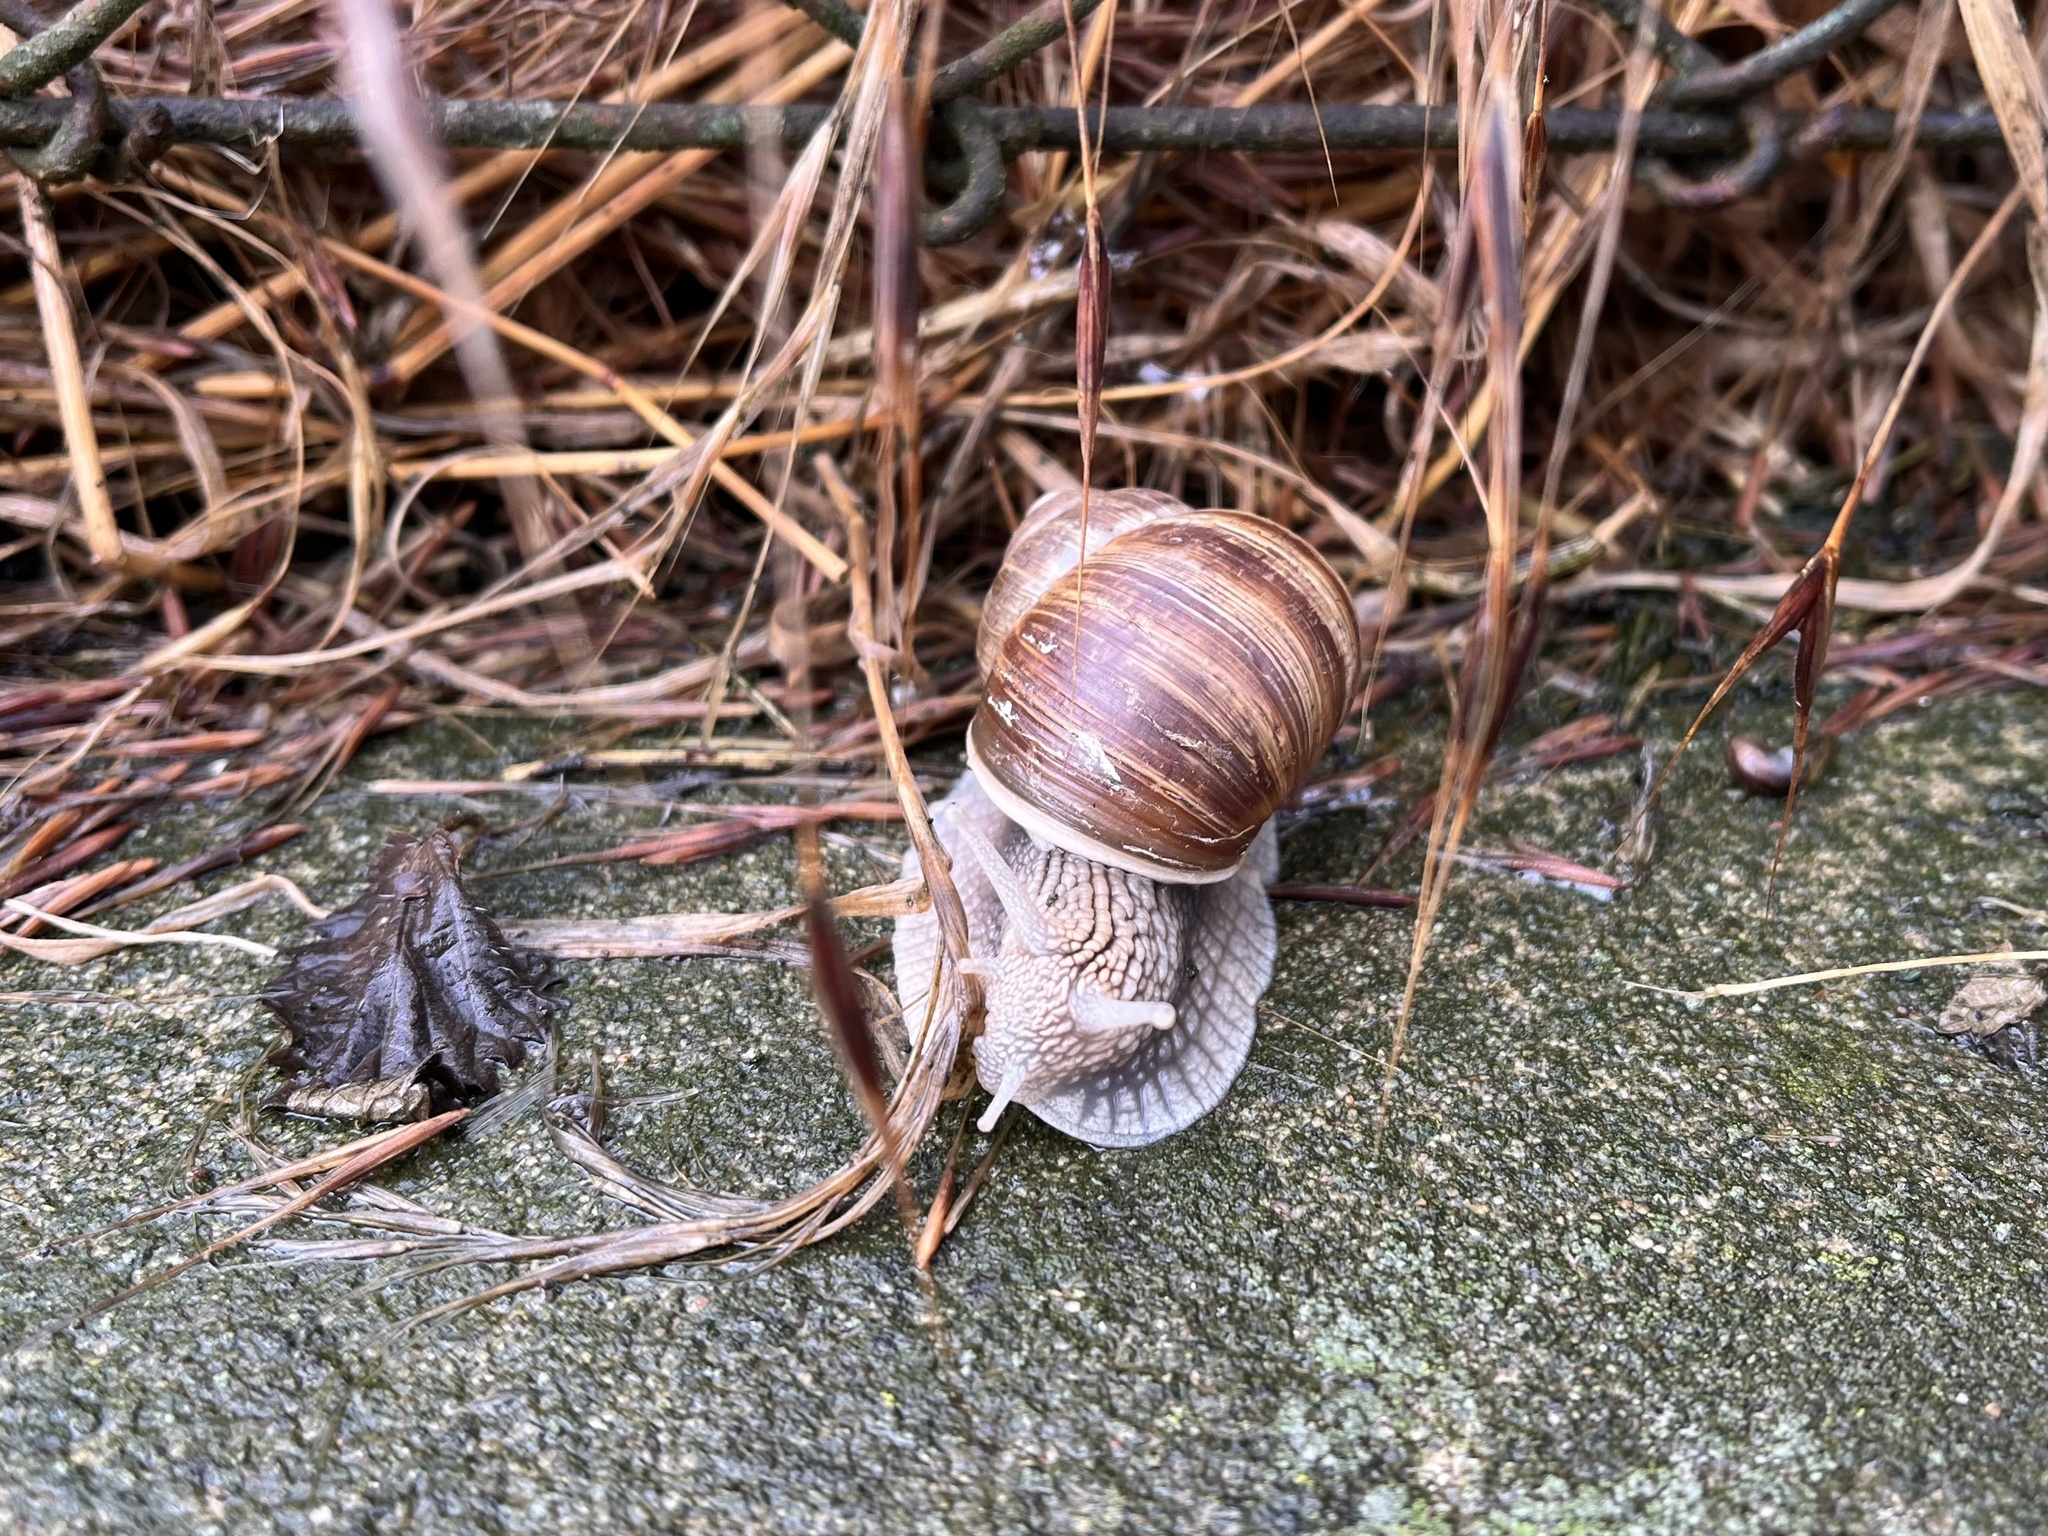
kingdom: Animalia
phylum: Mollusca
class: Gastropoda
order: Stylommatophora
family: Helicidae
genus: Helix
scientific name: Helix pomatia
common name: Roman snail
